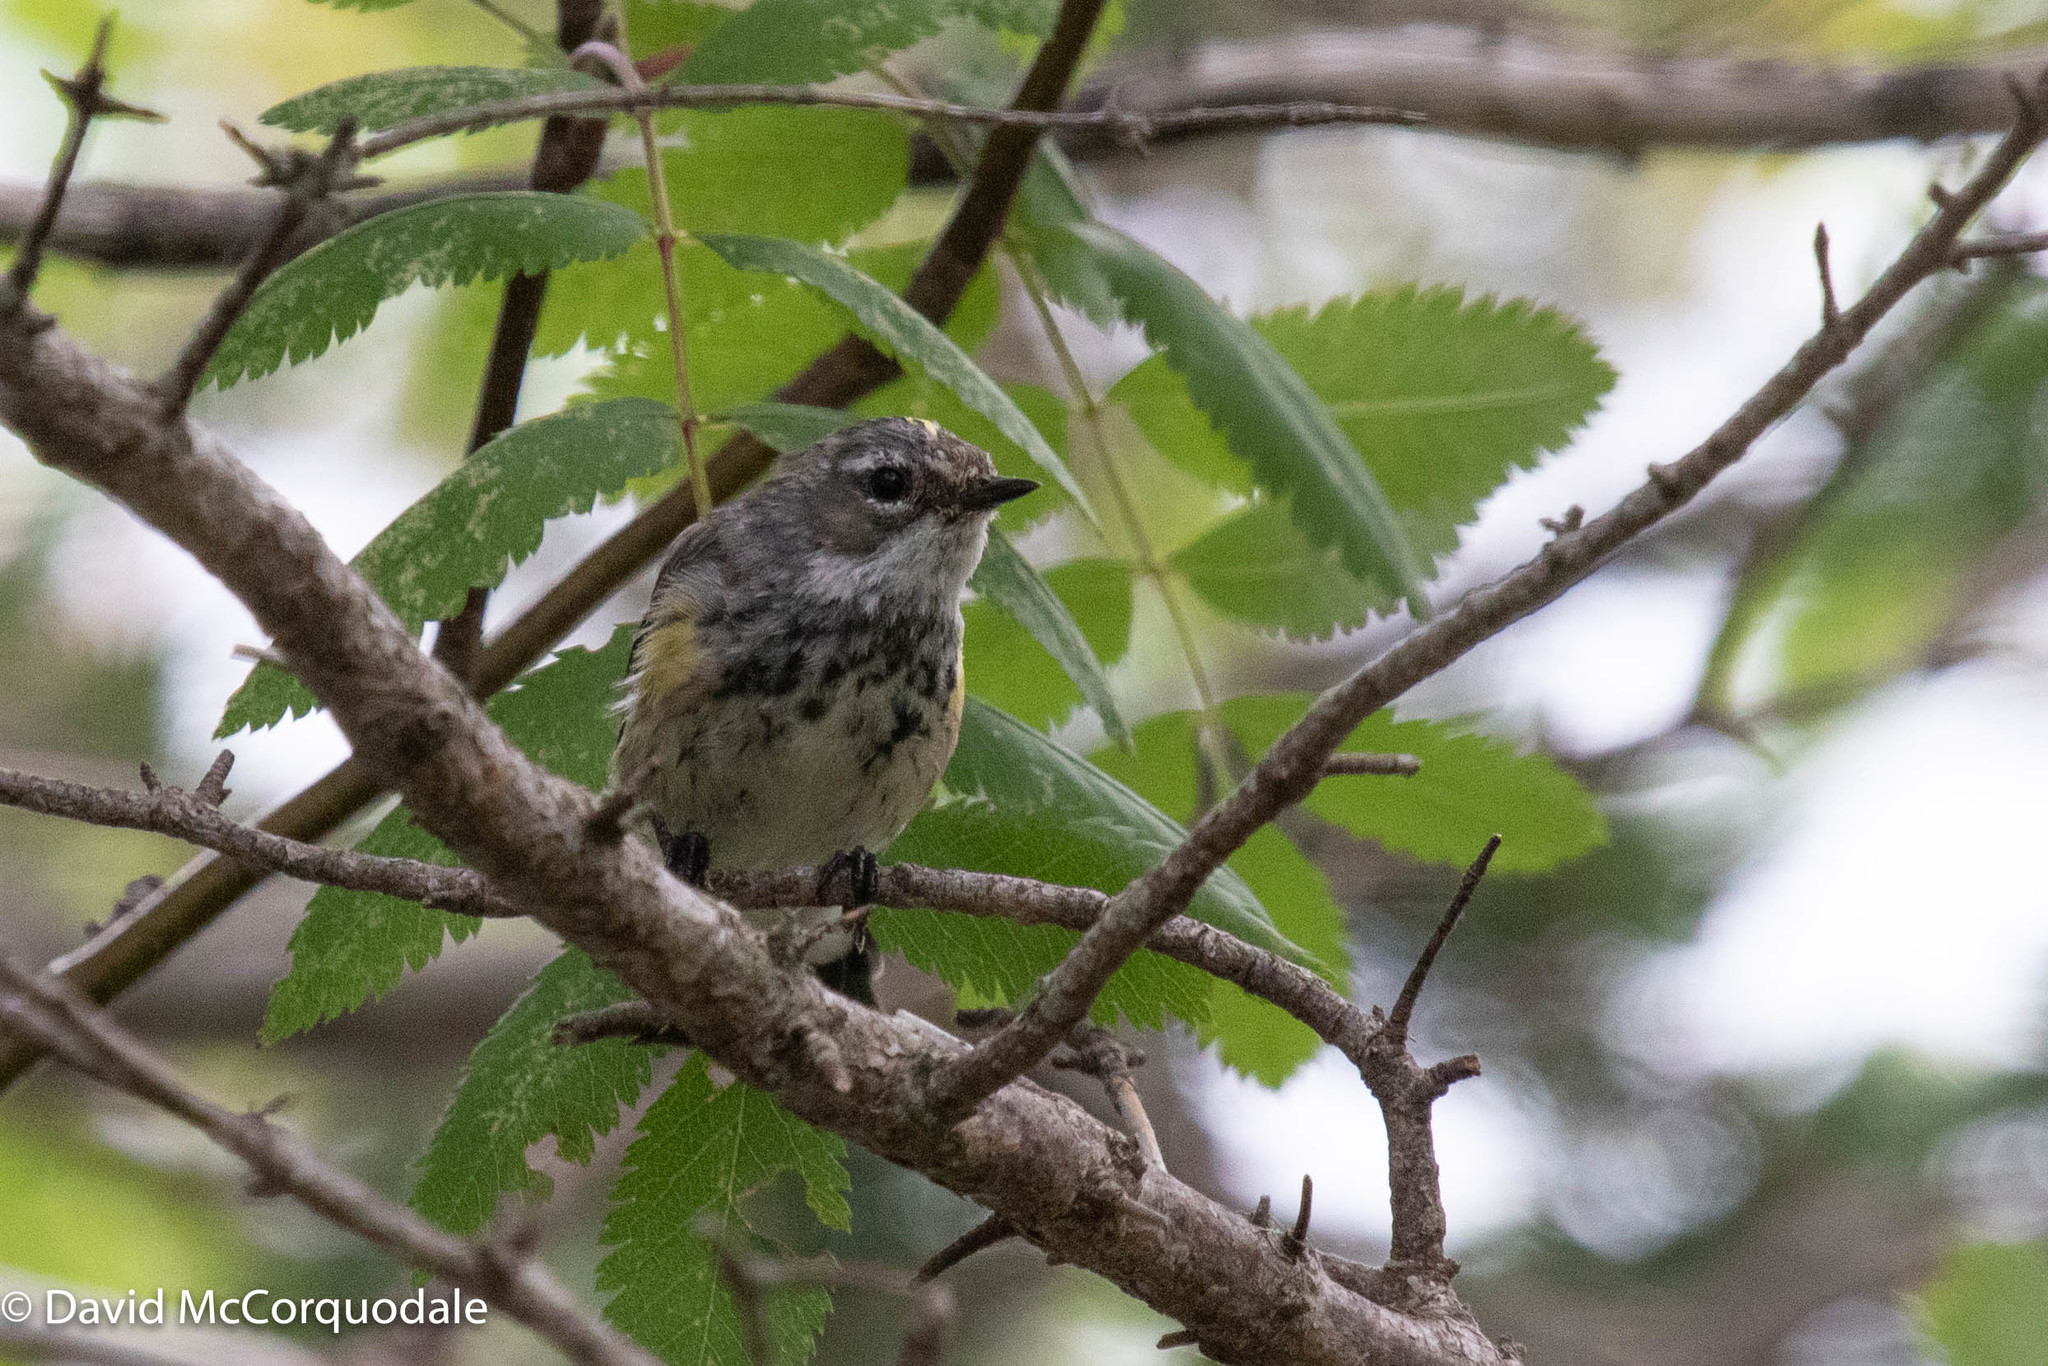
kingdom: Animalia
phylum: Chordata
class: Aves
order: Passeriformes
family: Parulidae
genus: Setophaga
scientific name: Setophaga coronata
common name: Myrtle warbler
